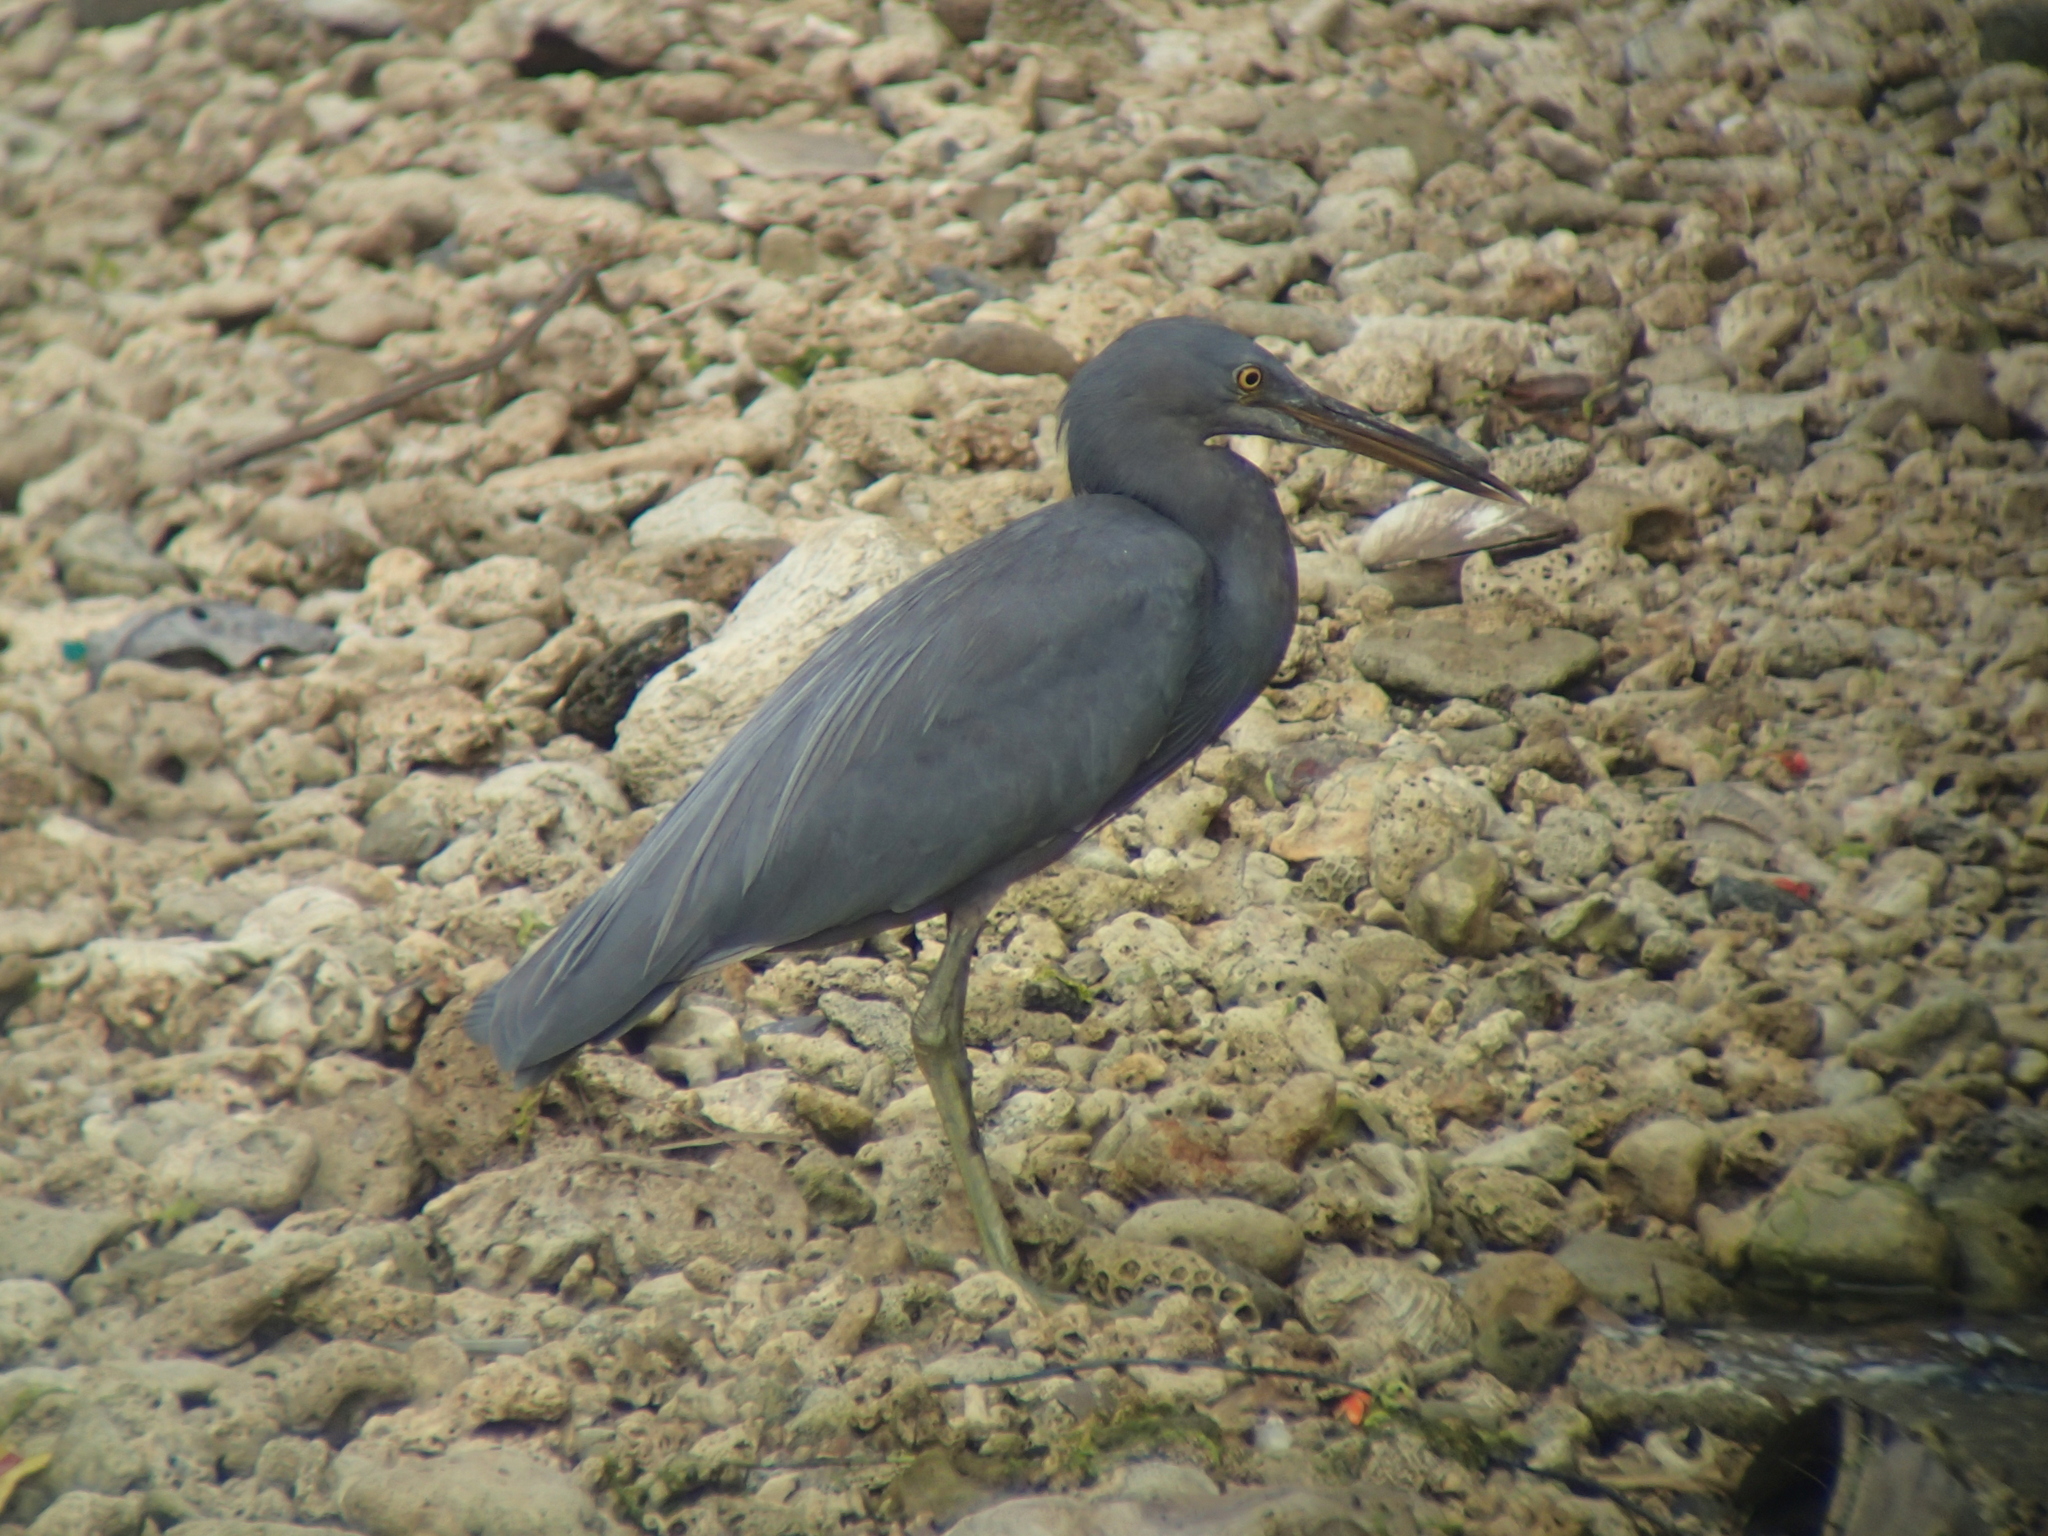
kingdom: Animalia
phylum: Chordata
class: Aves
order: Pelecaniformes
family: Ardeidae
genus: Egretta
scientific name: Egretta sacra
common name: Pacific reef heron
